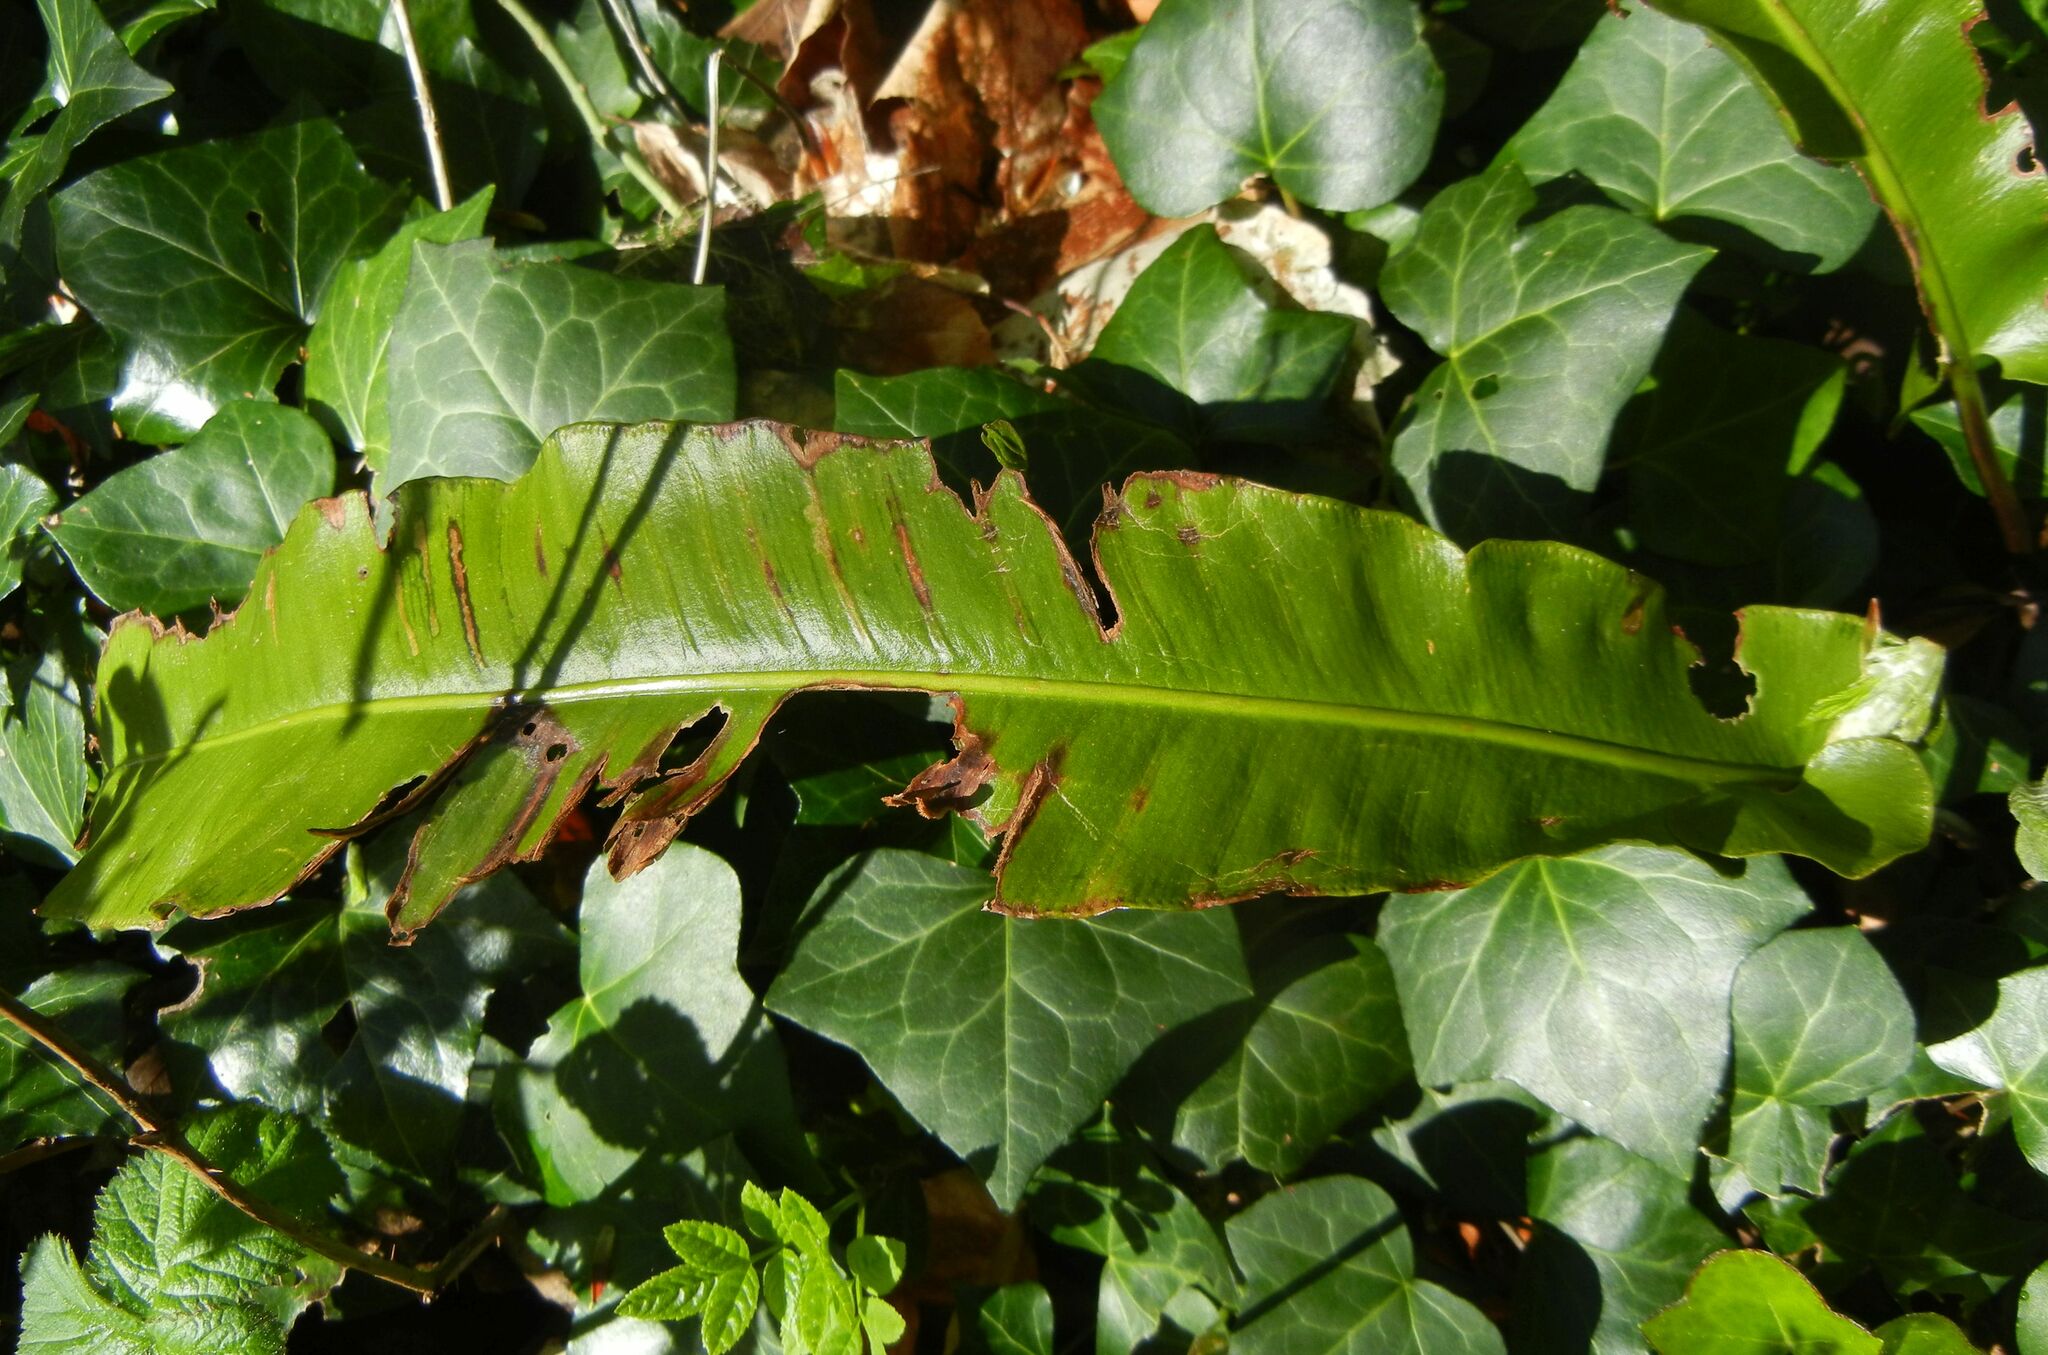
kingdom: Plantae
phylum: Tracheophyta
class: Polypodiopsida
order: Polypodiales
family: Aspleniaceae
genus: Asplenium
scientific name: Asplenium scolopendrium
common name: Hart's-tongue fern
